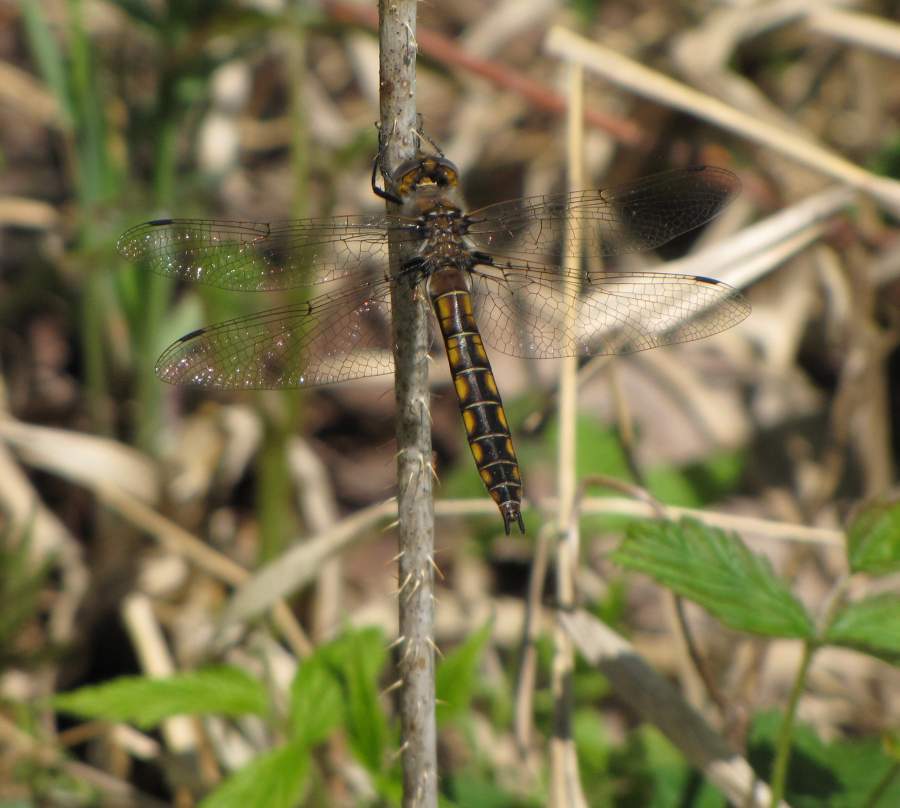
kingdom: Animalia
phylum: Arthropoda
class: Insecta
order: Odonata
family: Corduliidae
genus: Epitheca
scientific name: Epitheca canis
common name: Beaverpond baskettail
